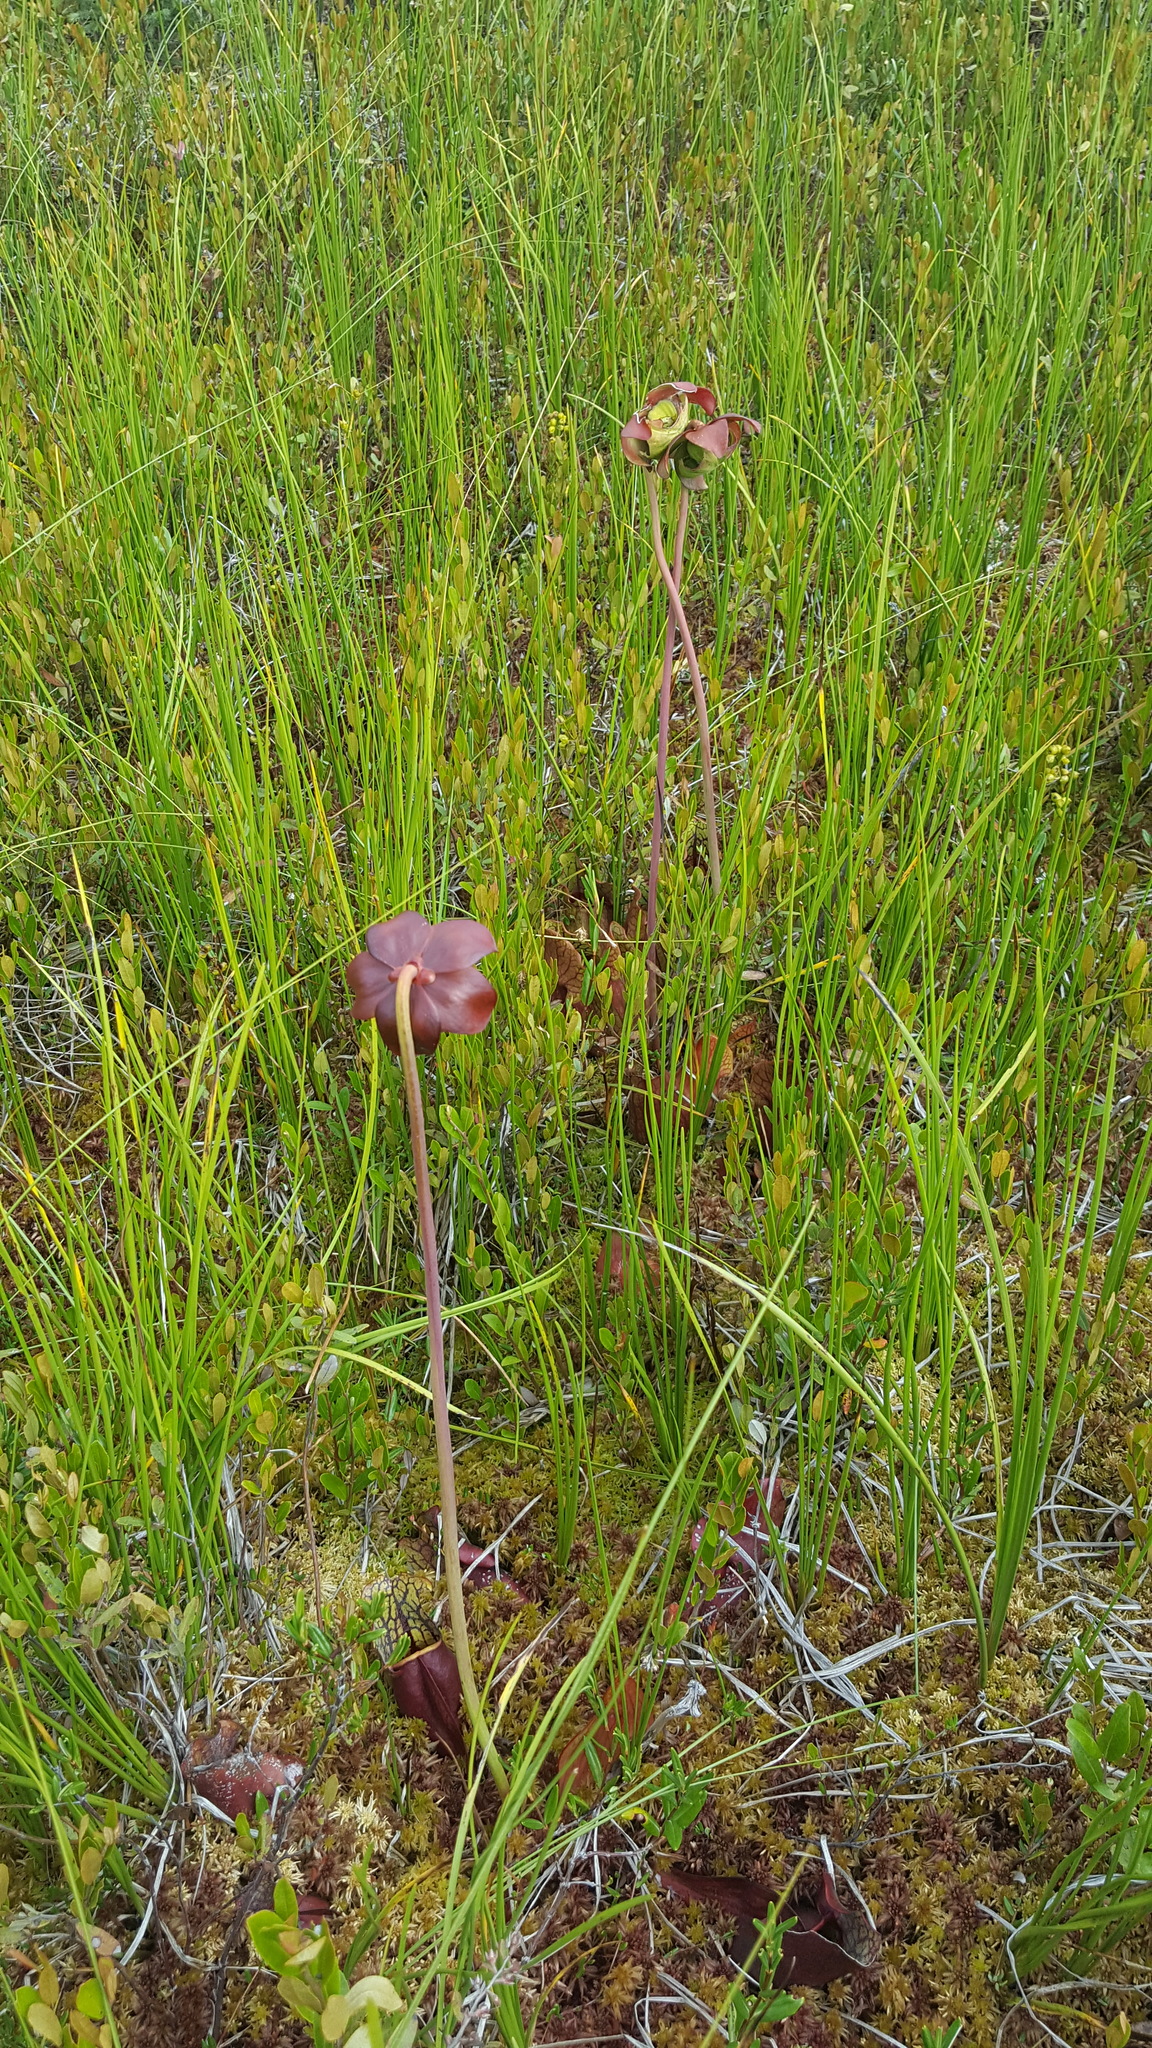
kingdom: Plantae
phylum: Tracheophyta
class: Magnoliopsida
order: Ericales
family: Sarraceniaceae
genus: Sarracenia
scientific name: Sarracenia purpurea
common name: Pitcherplant
